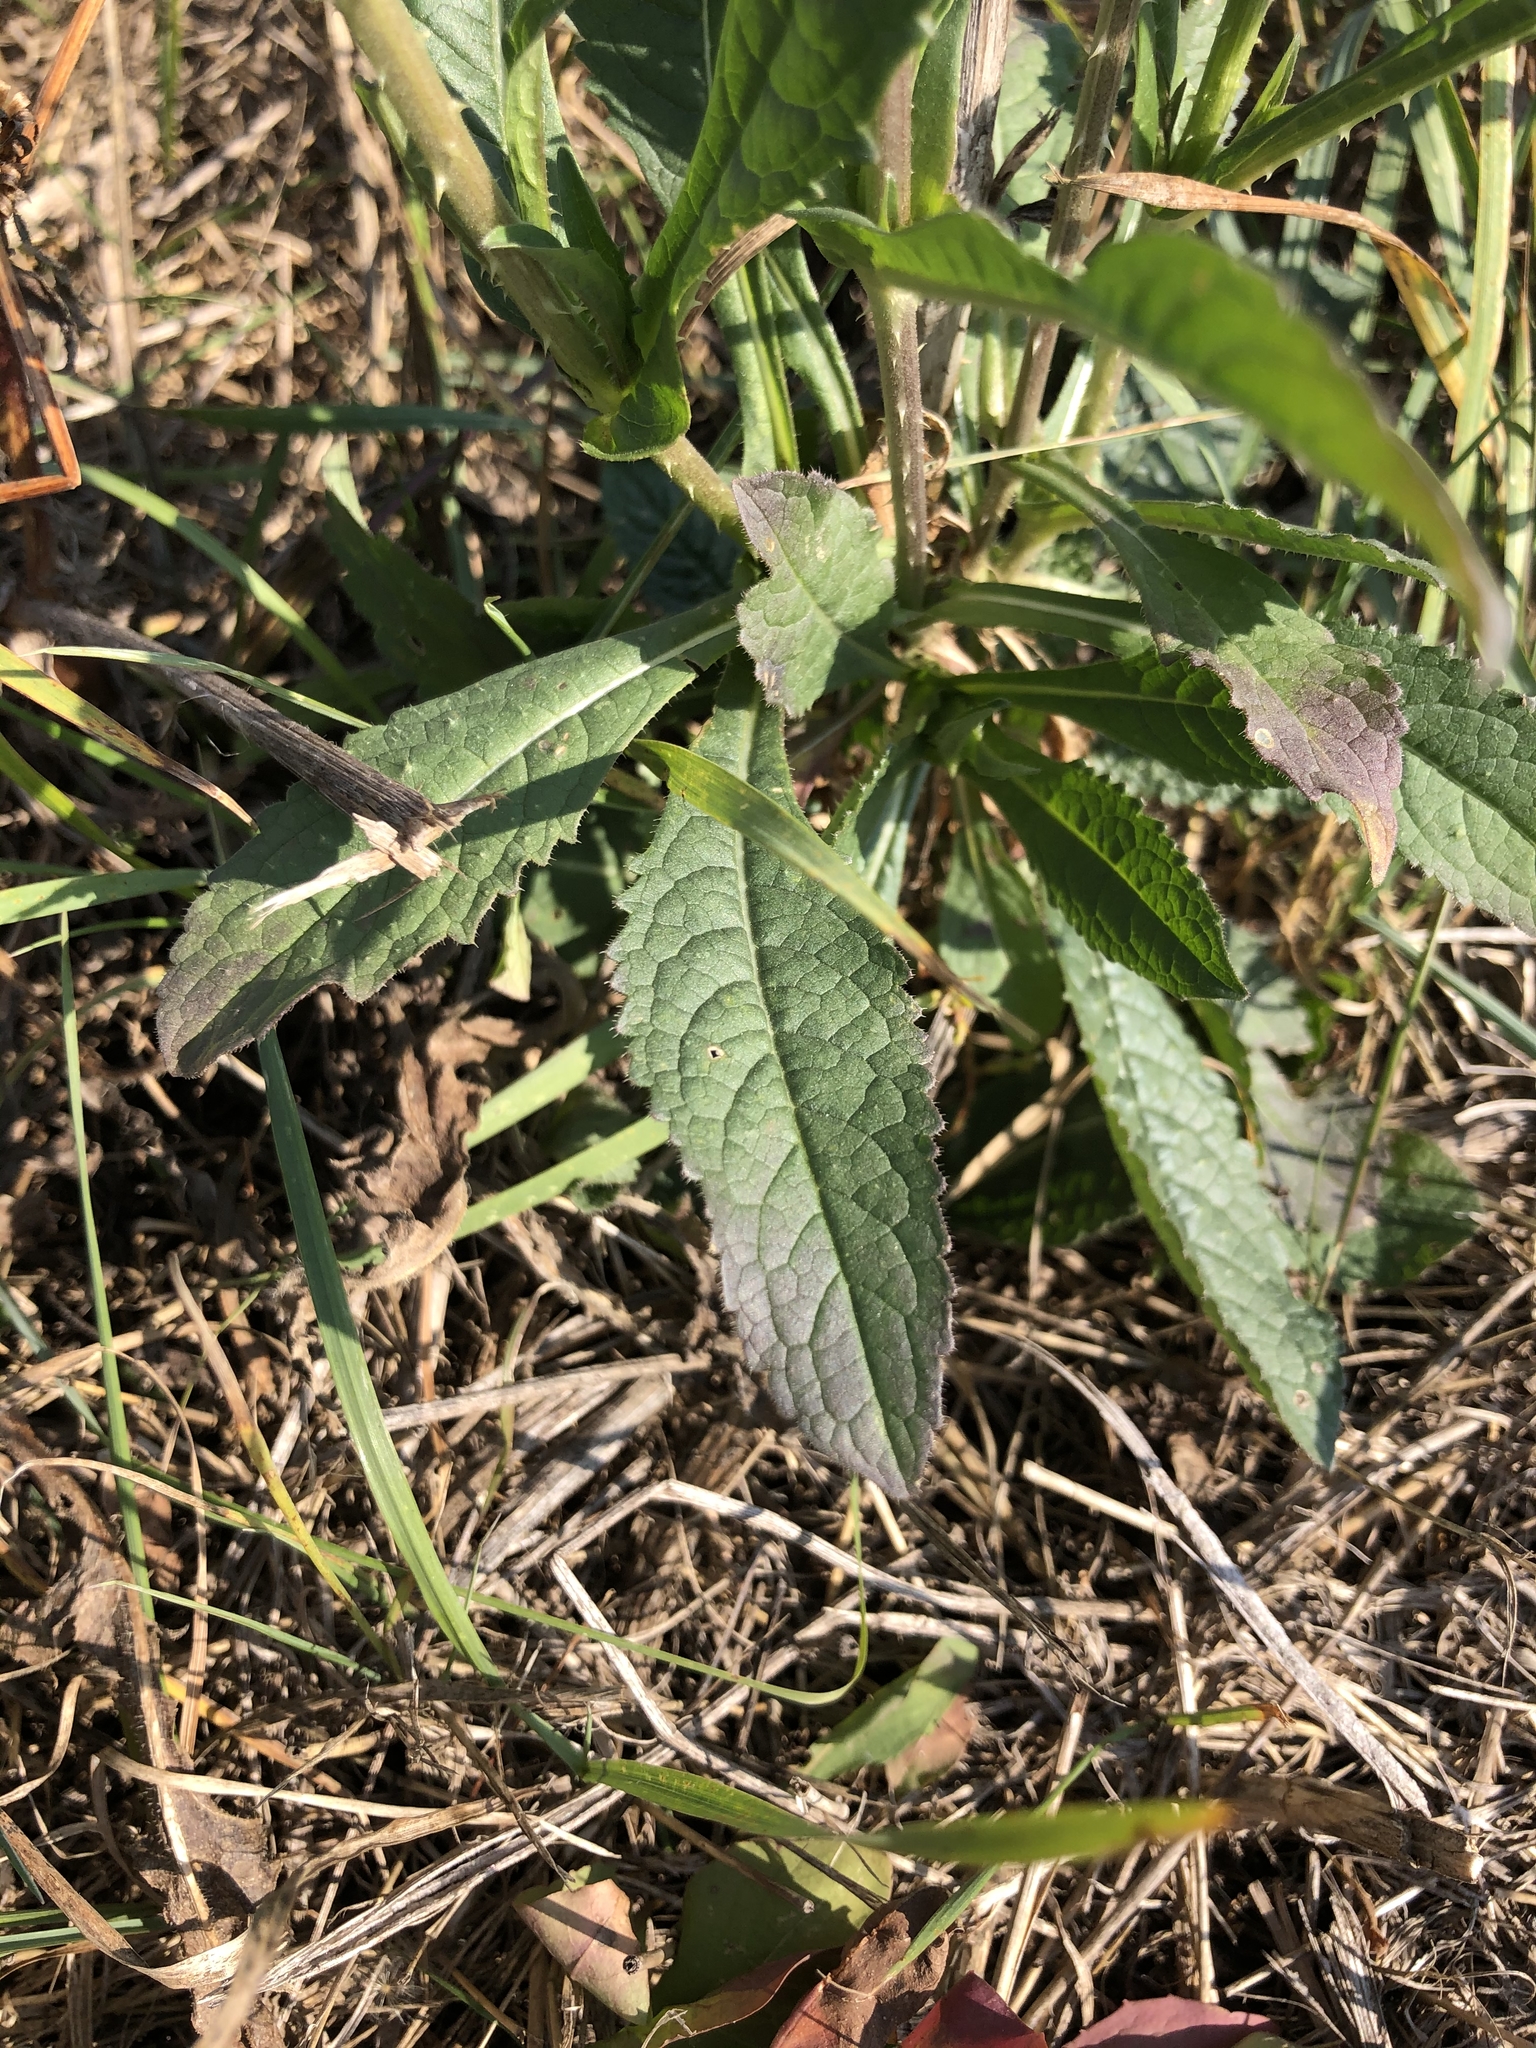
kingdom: Plantae
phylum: Tracheophyta
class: Magnoliopsida
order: Dipsacales
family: Caprifoliaceae
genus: Dipsacus
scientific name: Dipsacus fullonum
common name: Teasel
